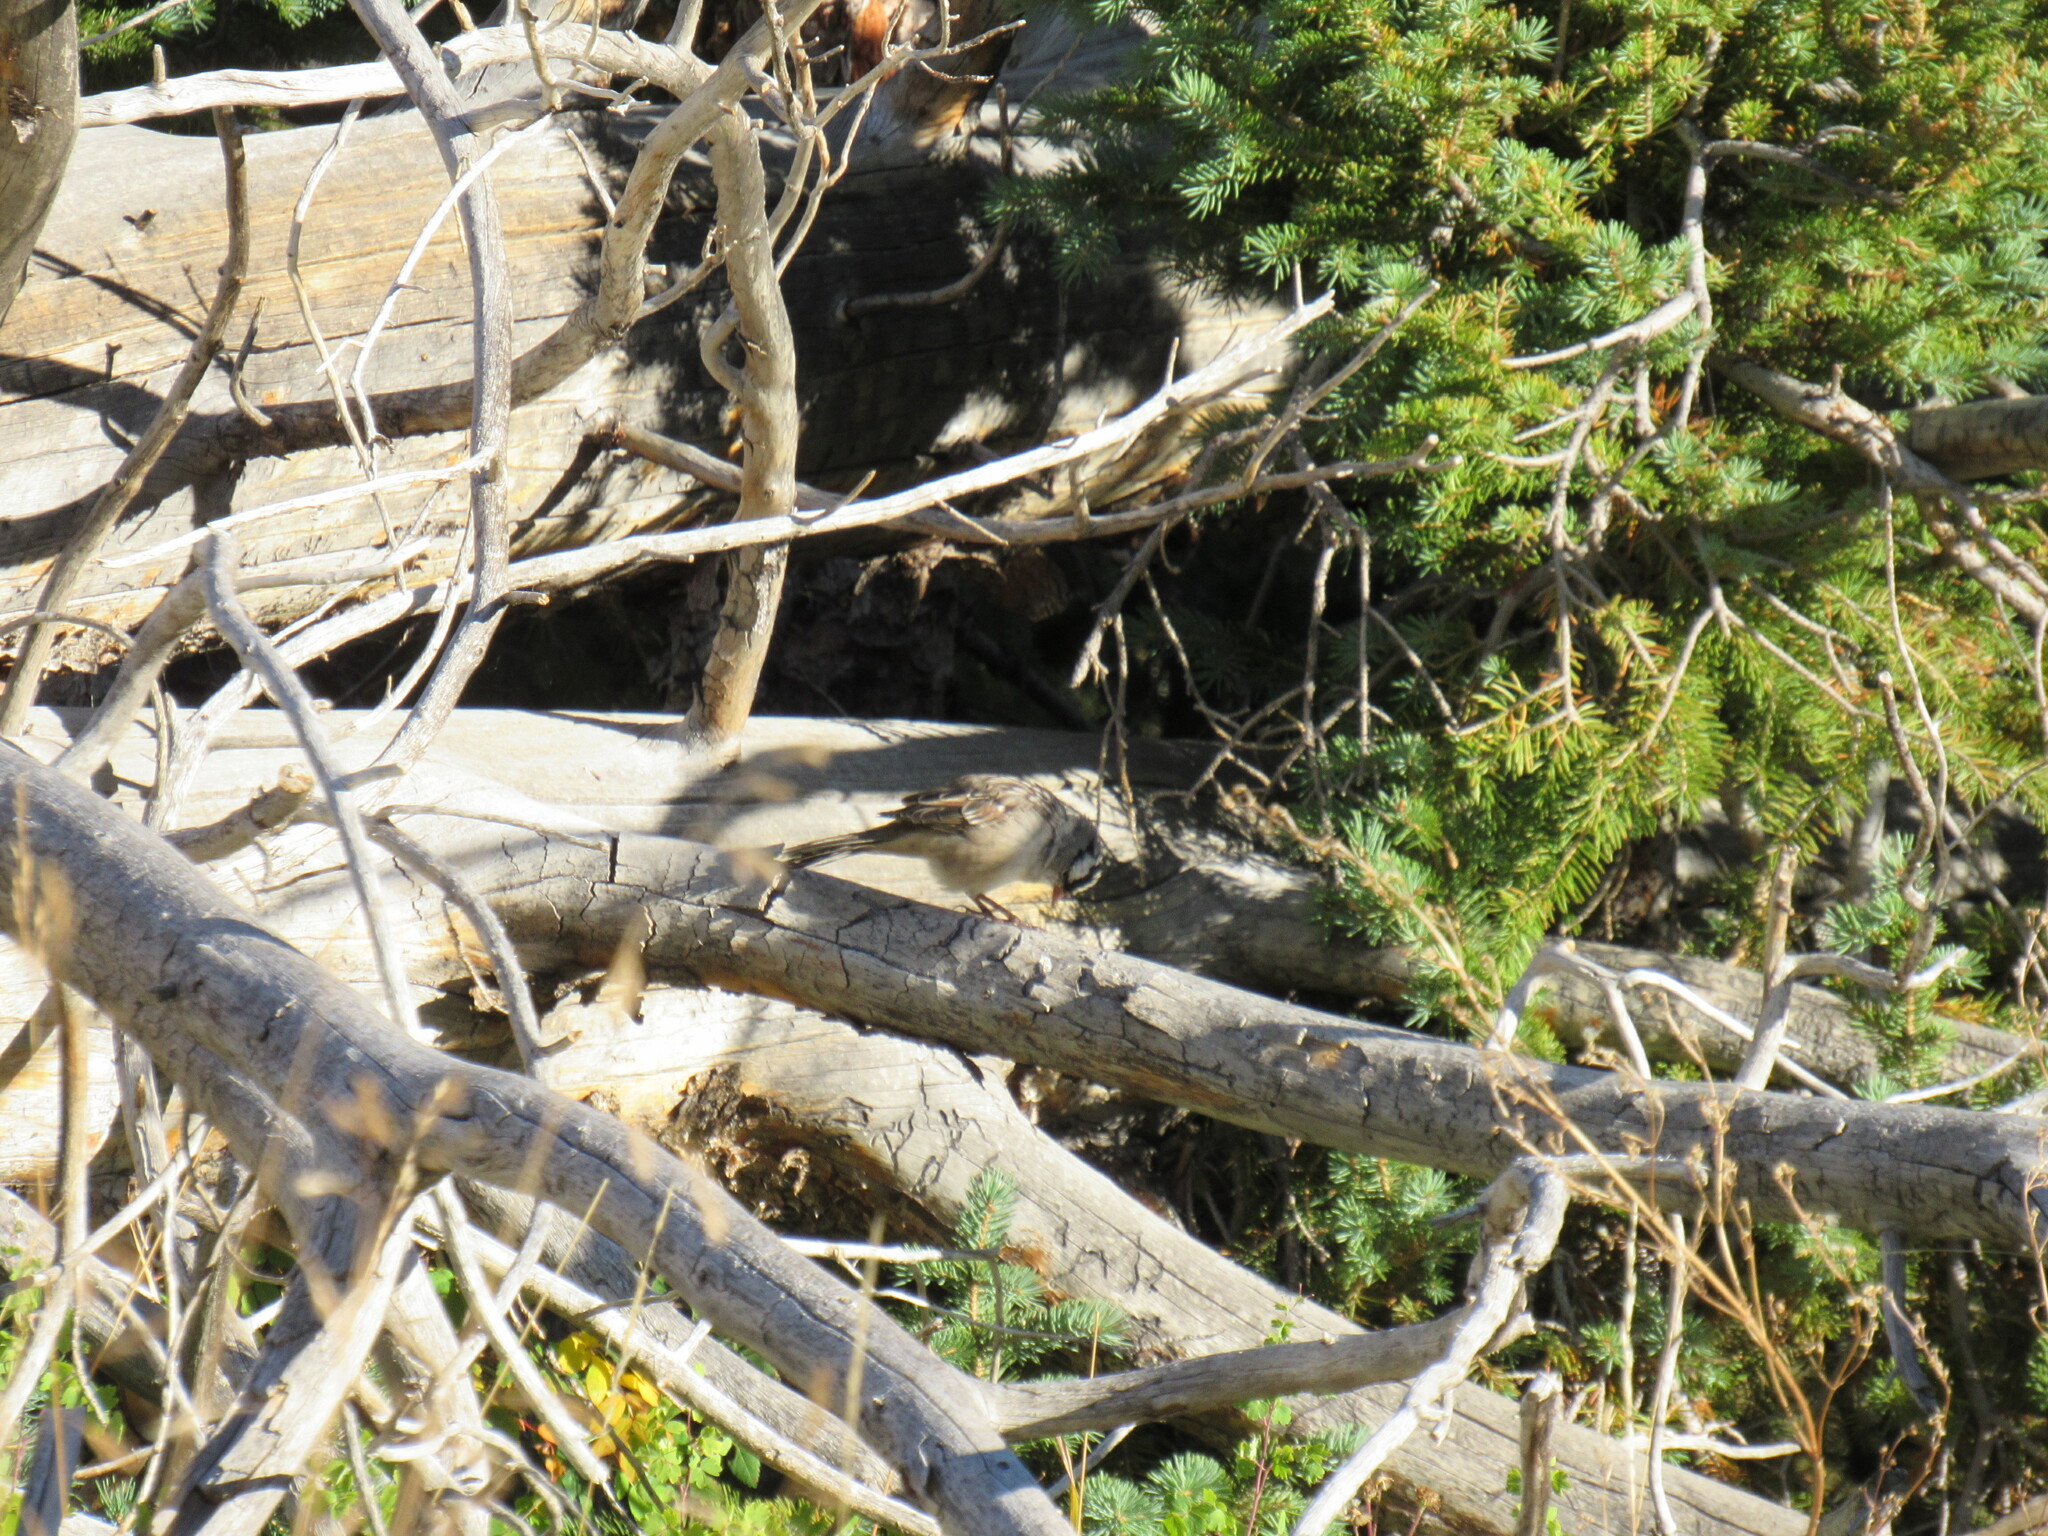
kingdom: Animalia
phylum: Chordata
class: Aves
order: Passeriformes
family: Passerellidae
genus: Zonotrichia
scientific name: Zonotrichia leucophrys
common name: White-crowned sparrow
